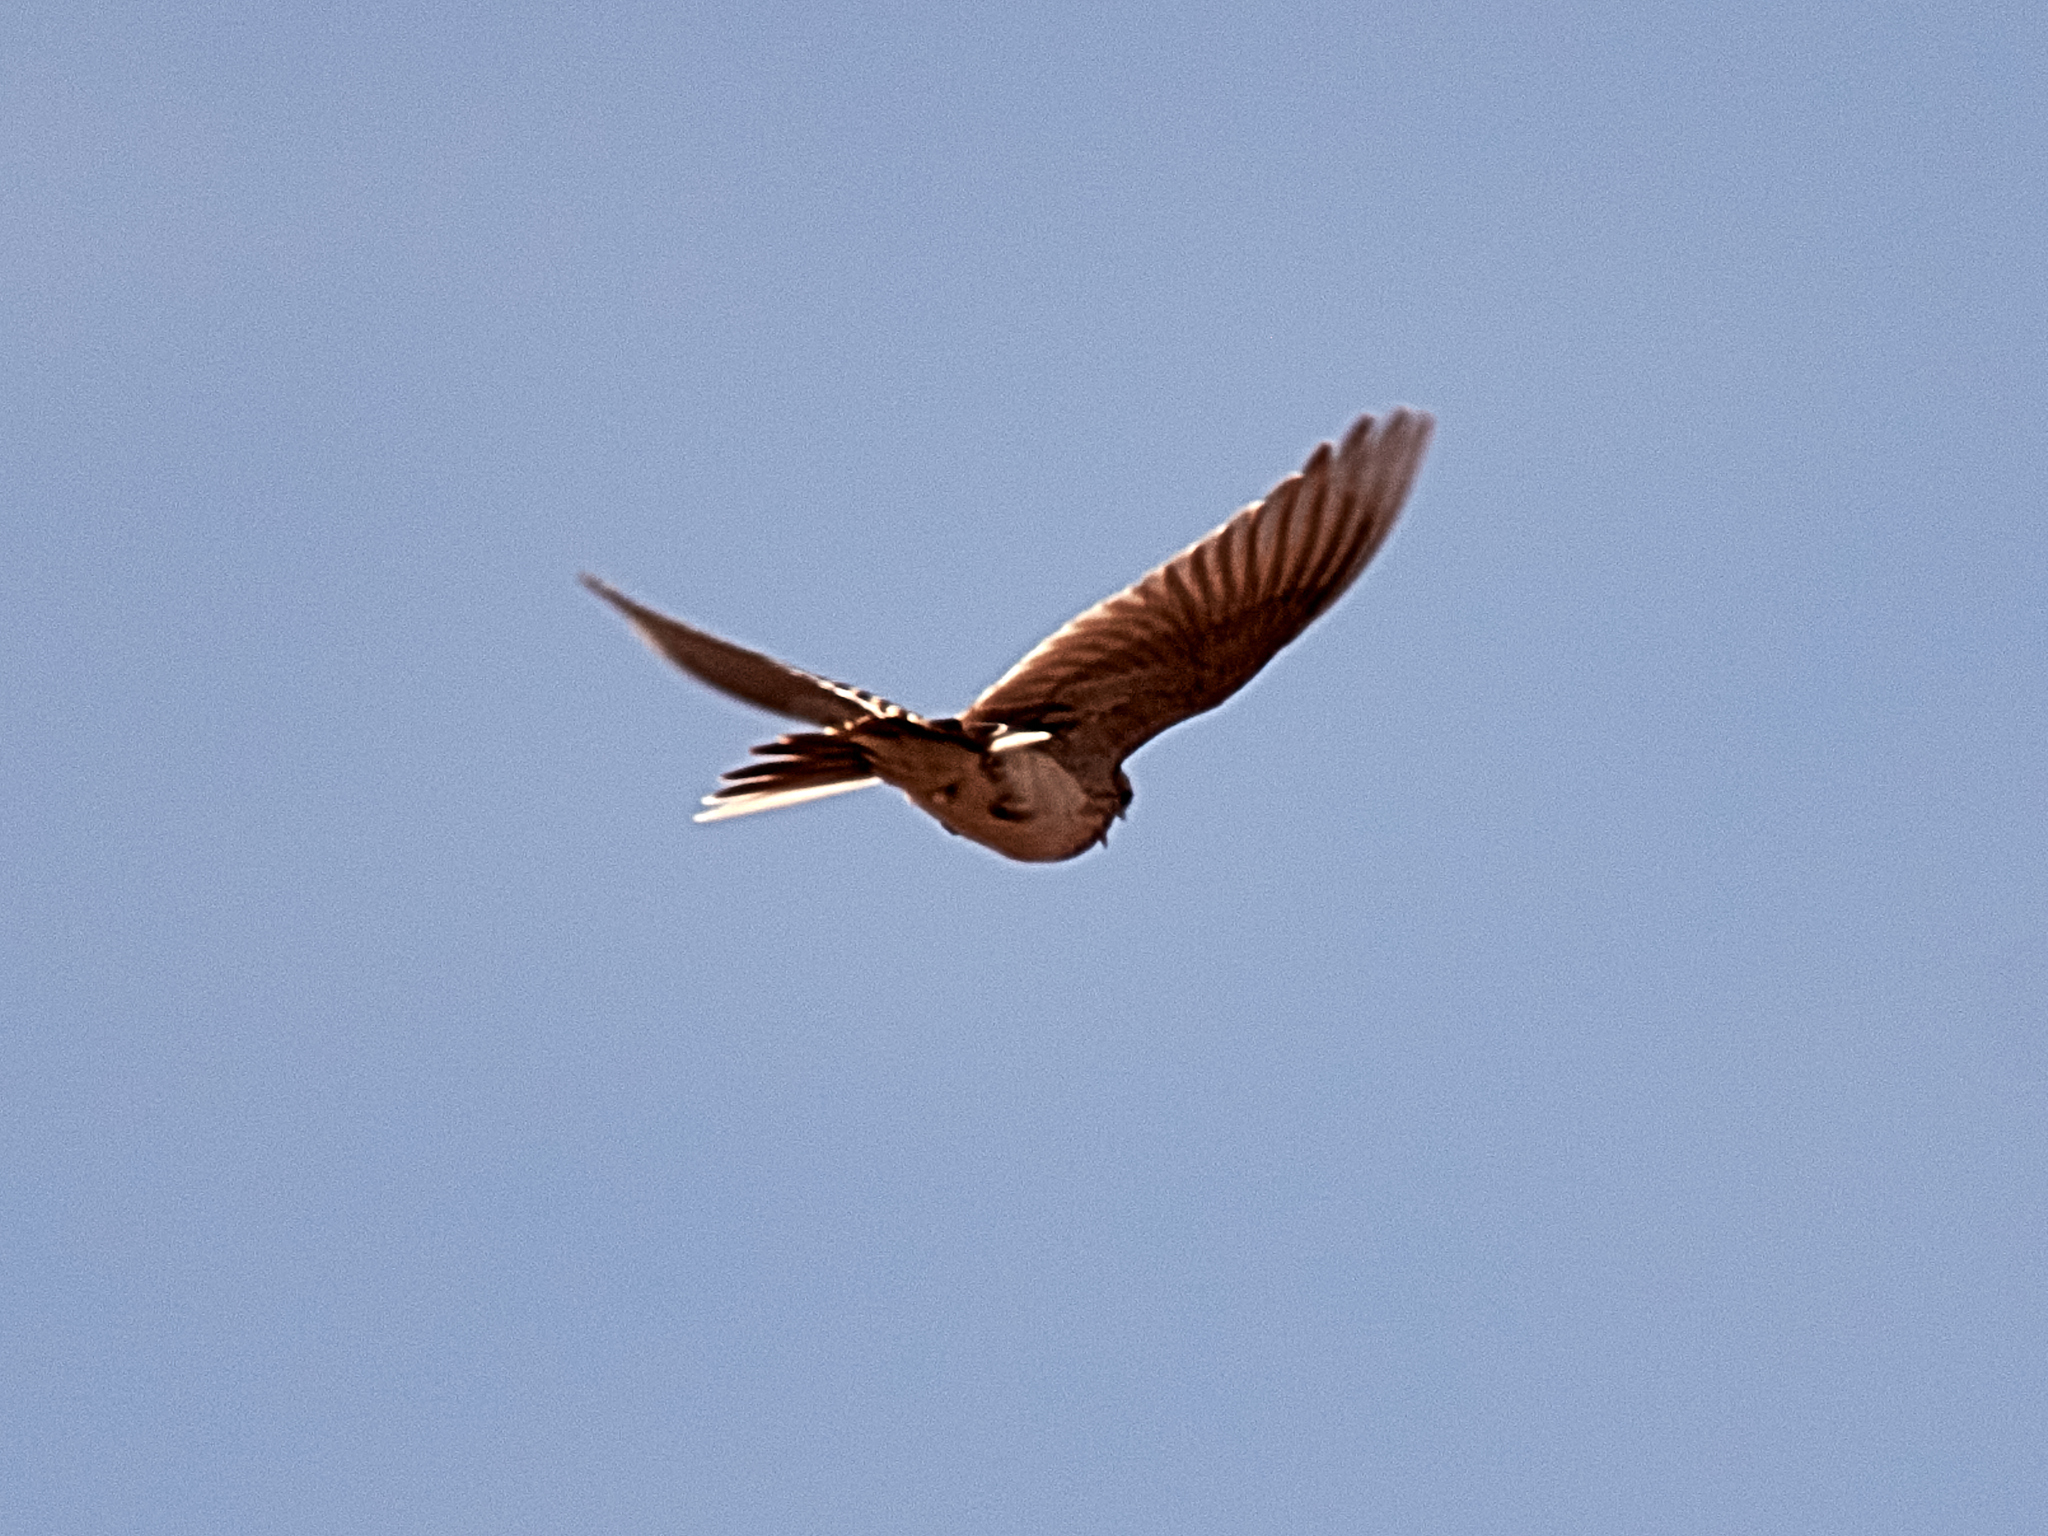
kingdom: Animalia
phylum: Chordata
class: Aves
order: Passeriformes
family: Alaudidae
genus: Alauda
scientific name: Alauda arvensis
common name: Eurasian skylark
